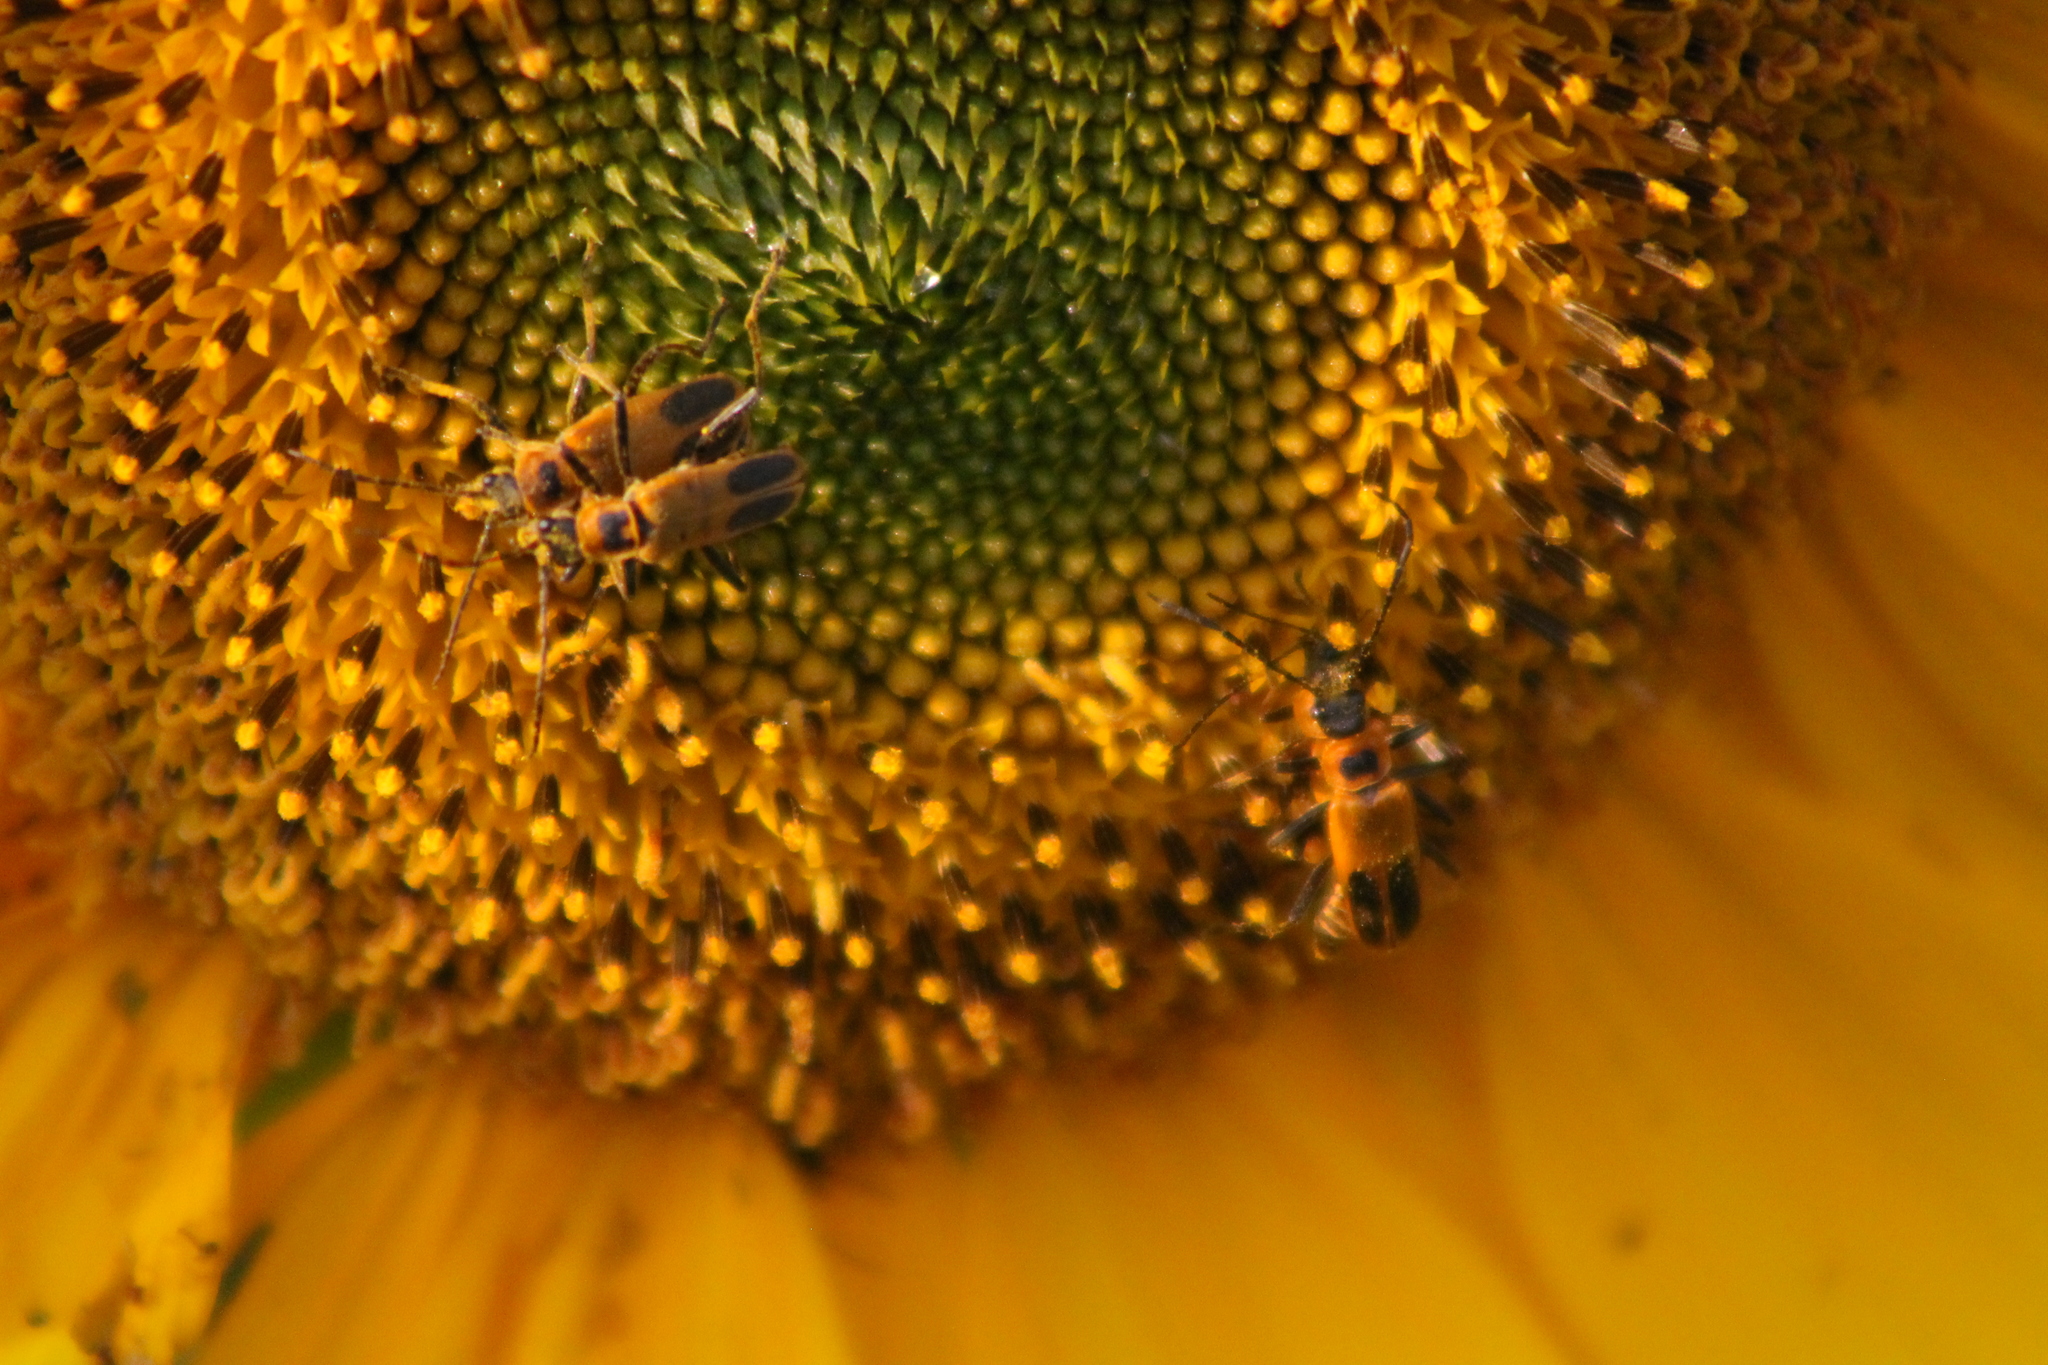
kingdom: Animalia
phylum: Arthropoda
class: Insecta
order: Coleoptera
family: Cantharidae
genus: Chauliognathus
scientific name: Chauliognathus pensylvanicus
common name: Goldenrod soldier beetle
